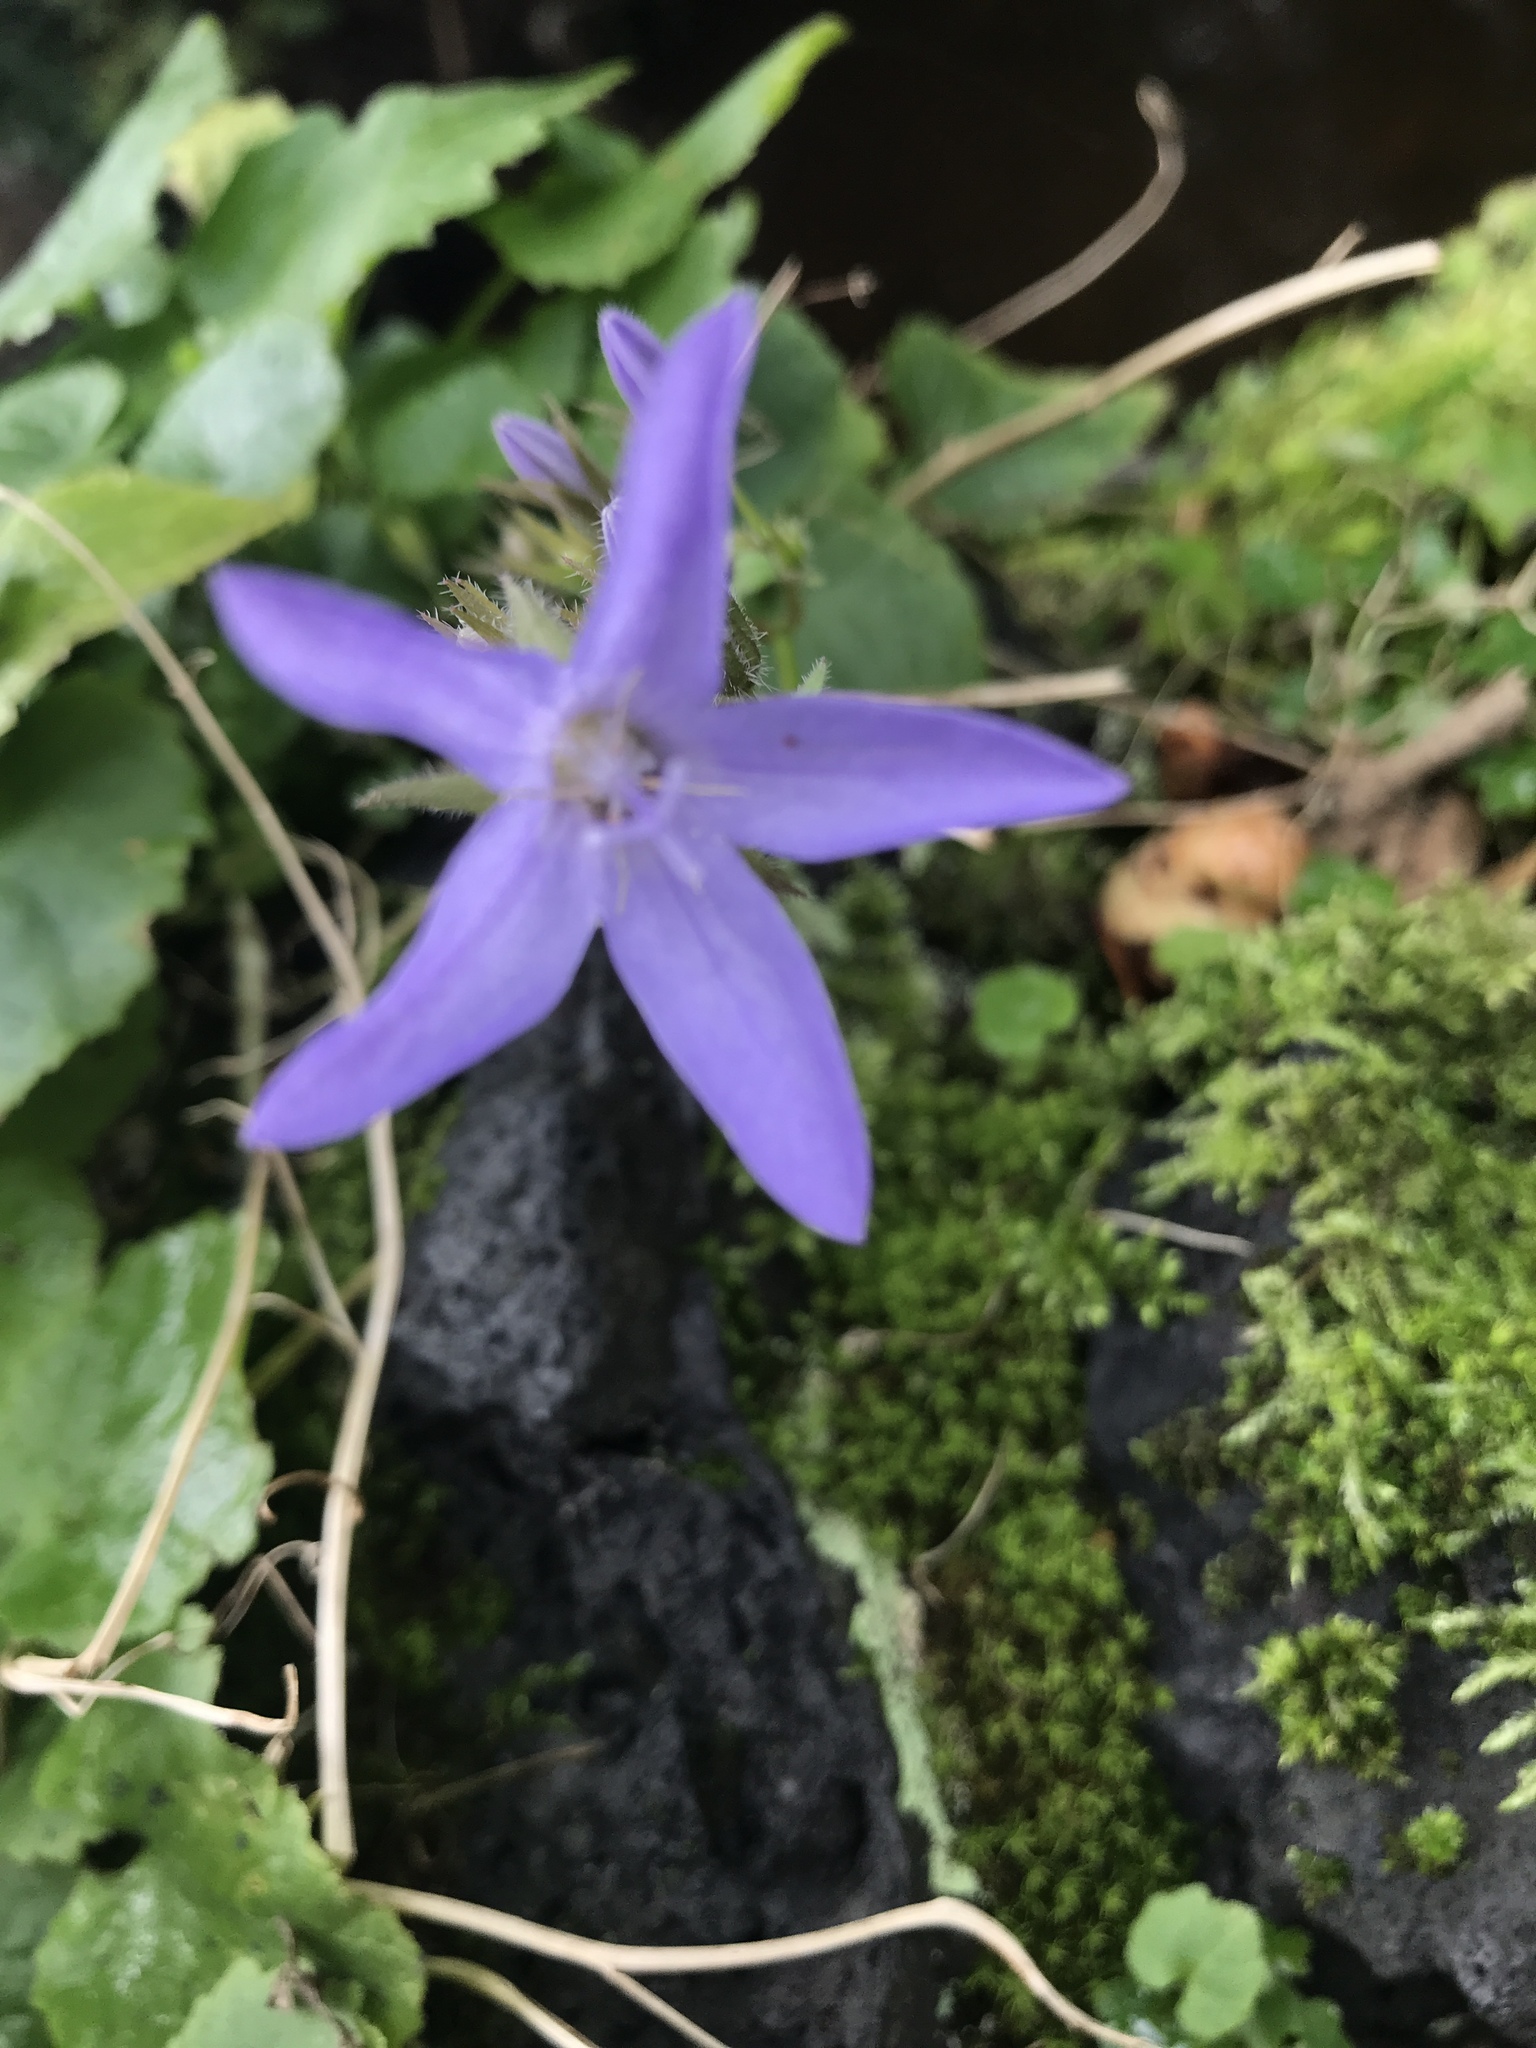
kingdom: Plantae
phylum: Tracheophyta
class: Magnoliopsida
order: Asterales
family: Campanulaceae
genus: Campanula
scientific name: Campanula poscharskyana
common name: Trailing bellflower
